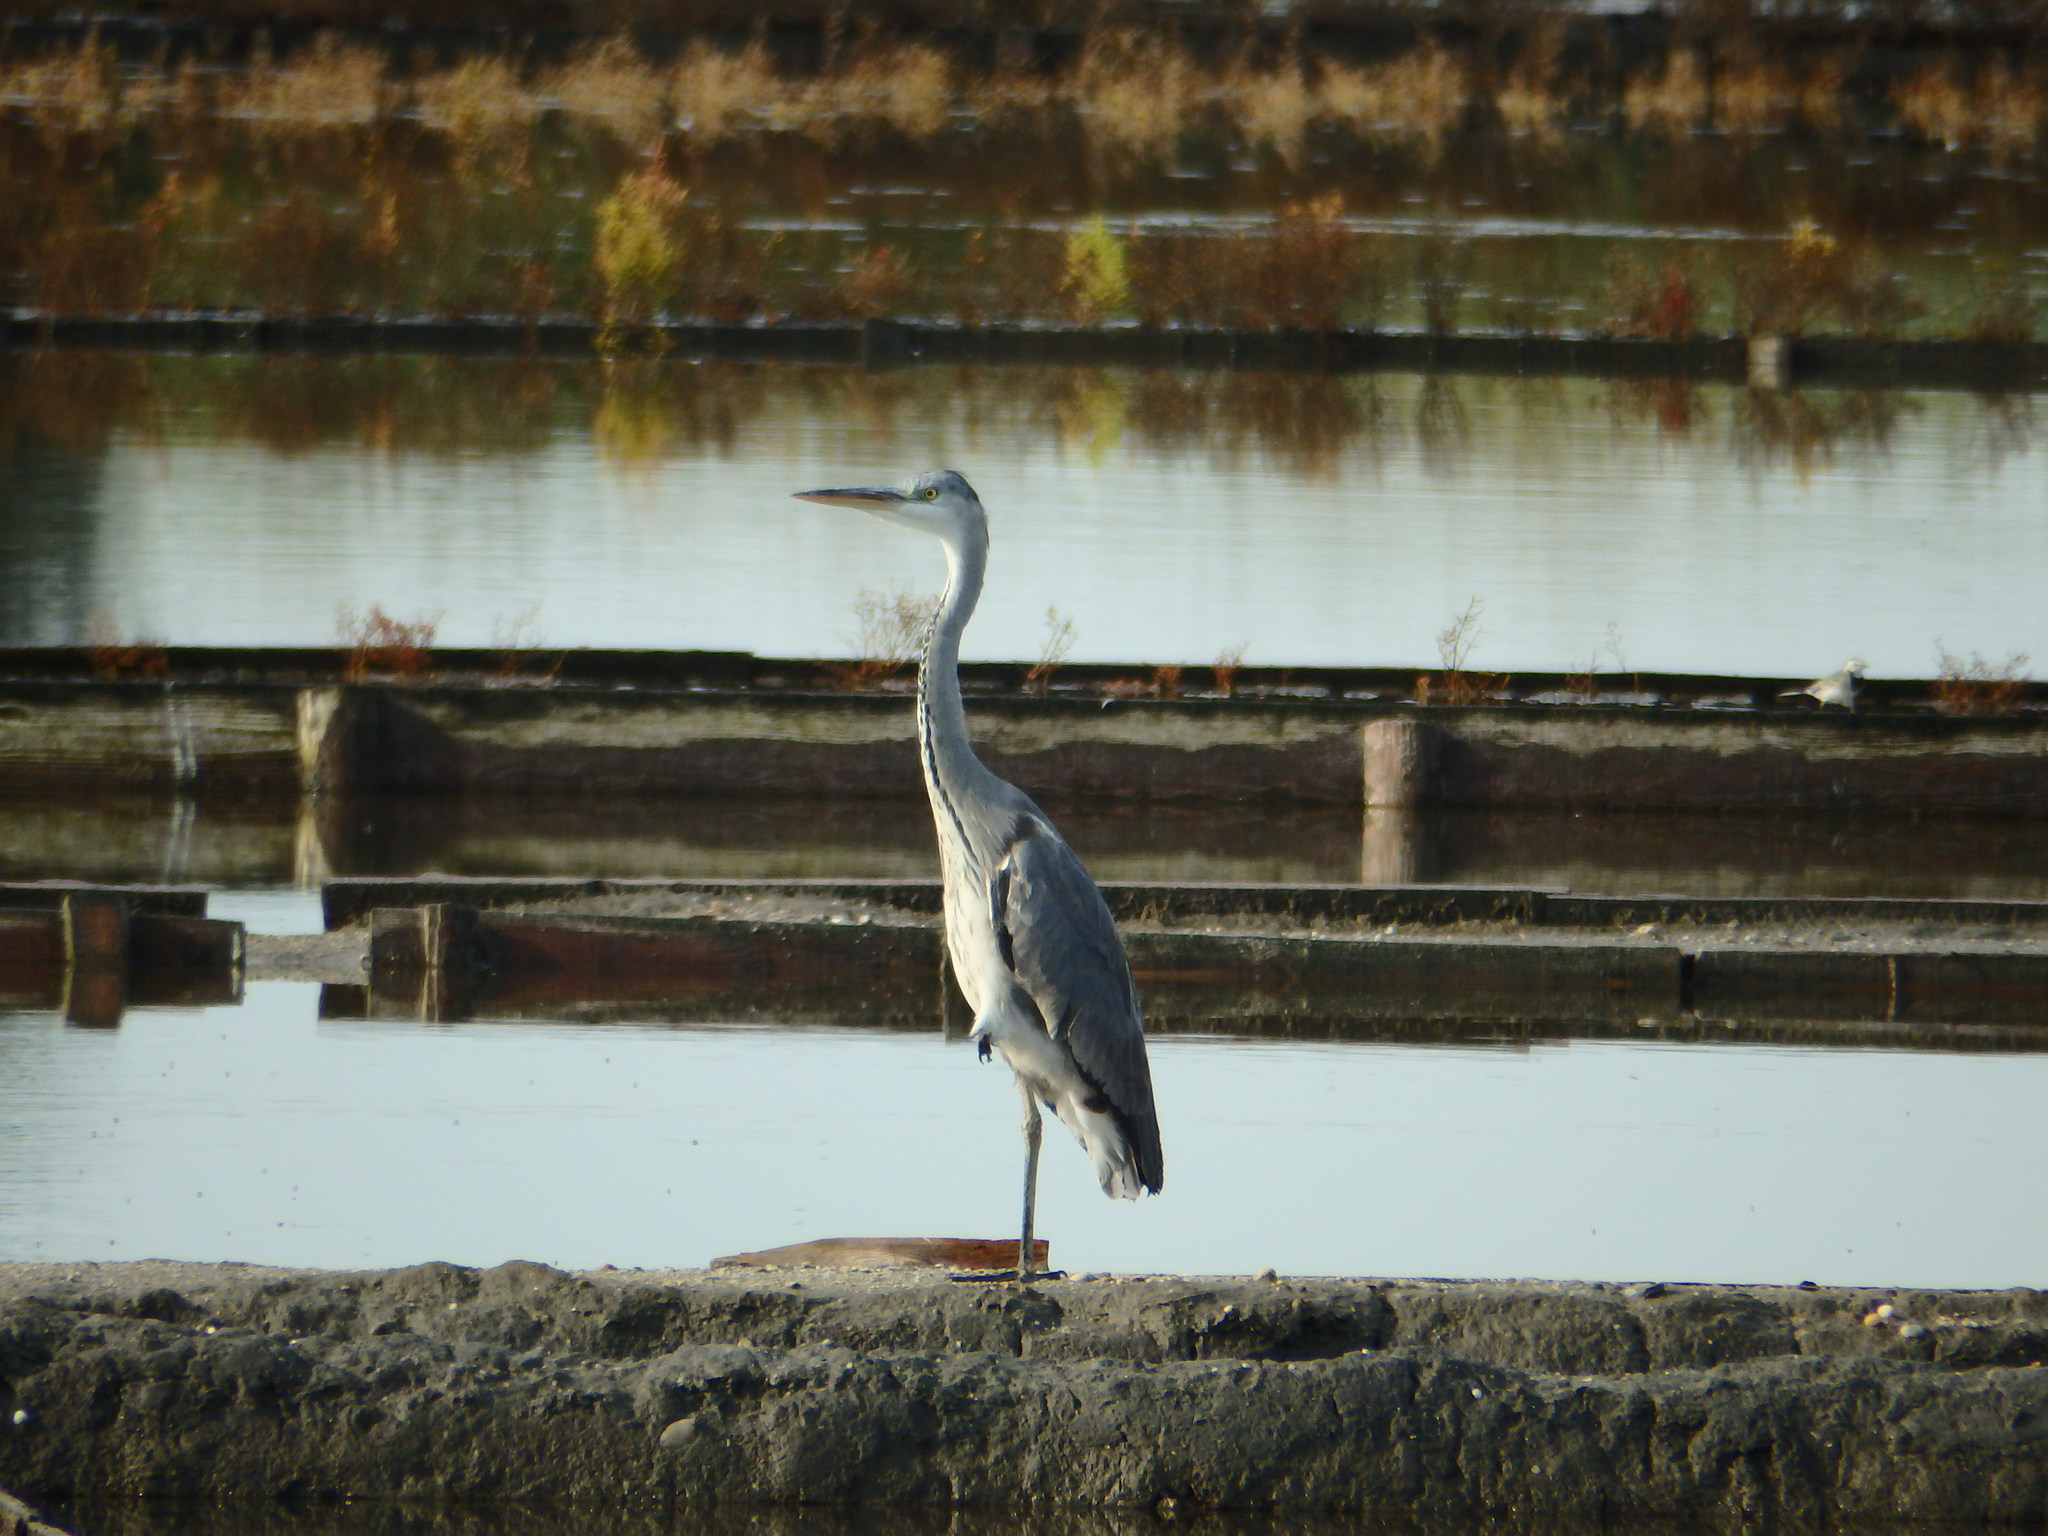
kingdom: Animalia
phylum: Chordata
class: Aves
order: Pelecaniformes
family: Ardeidae
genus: Ardea
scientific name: Ardea cinerea
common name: Grey heron
